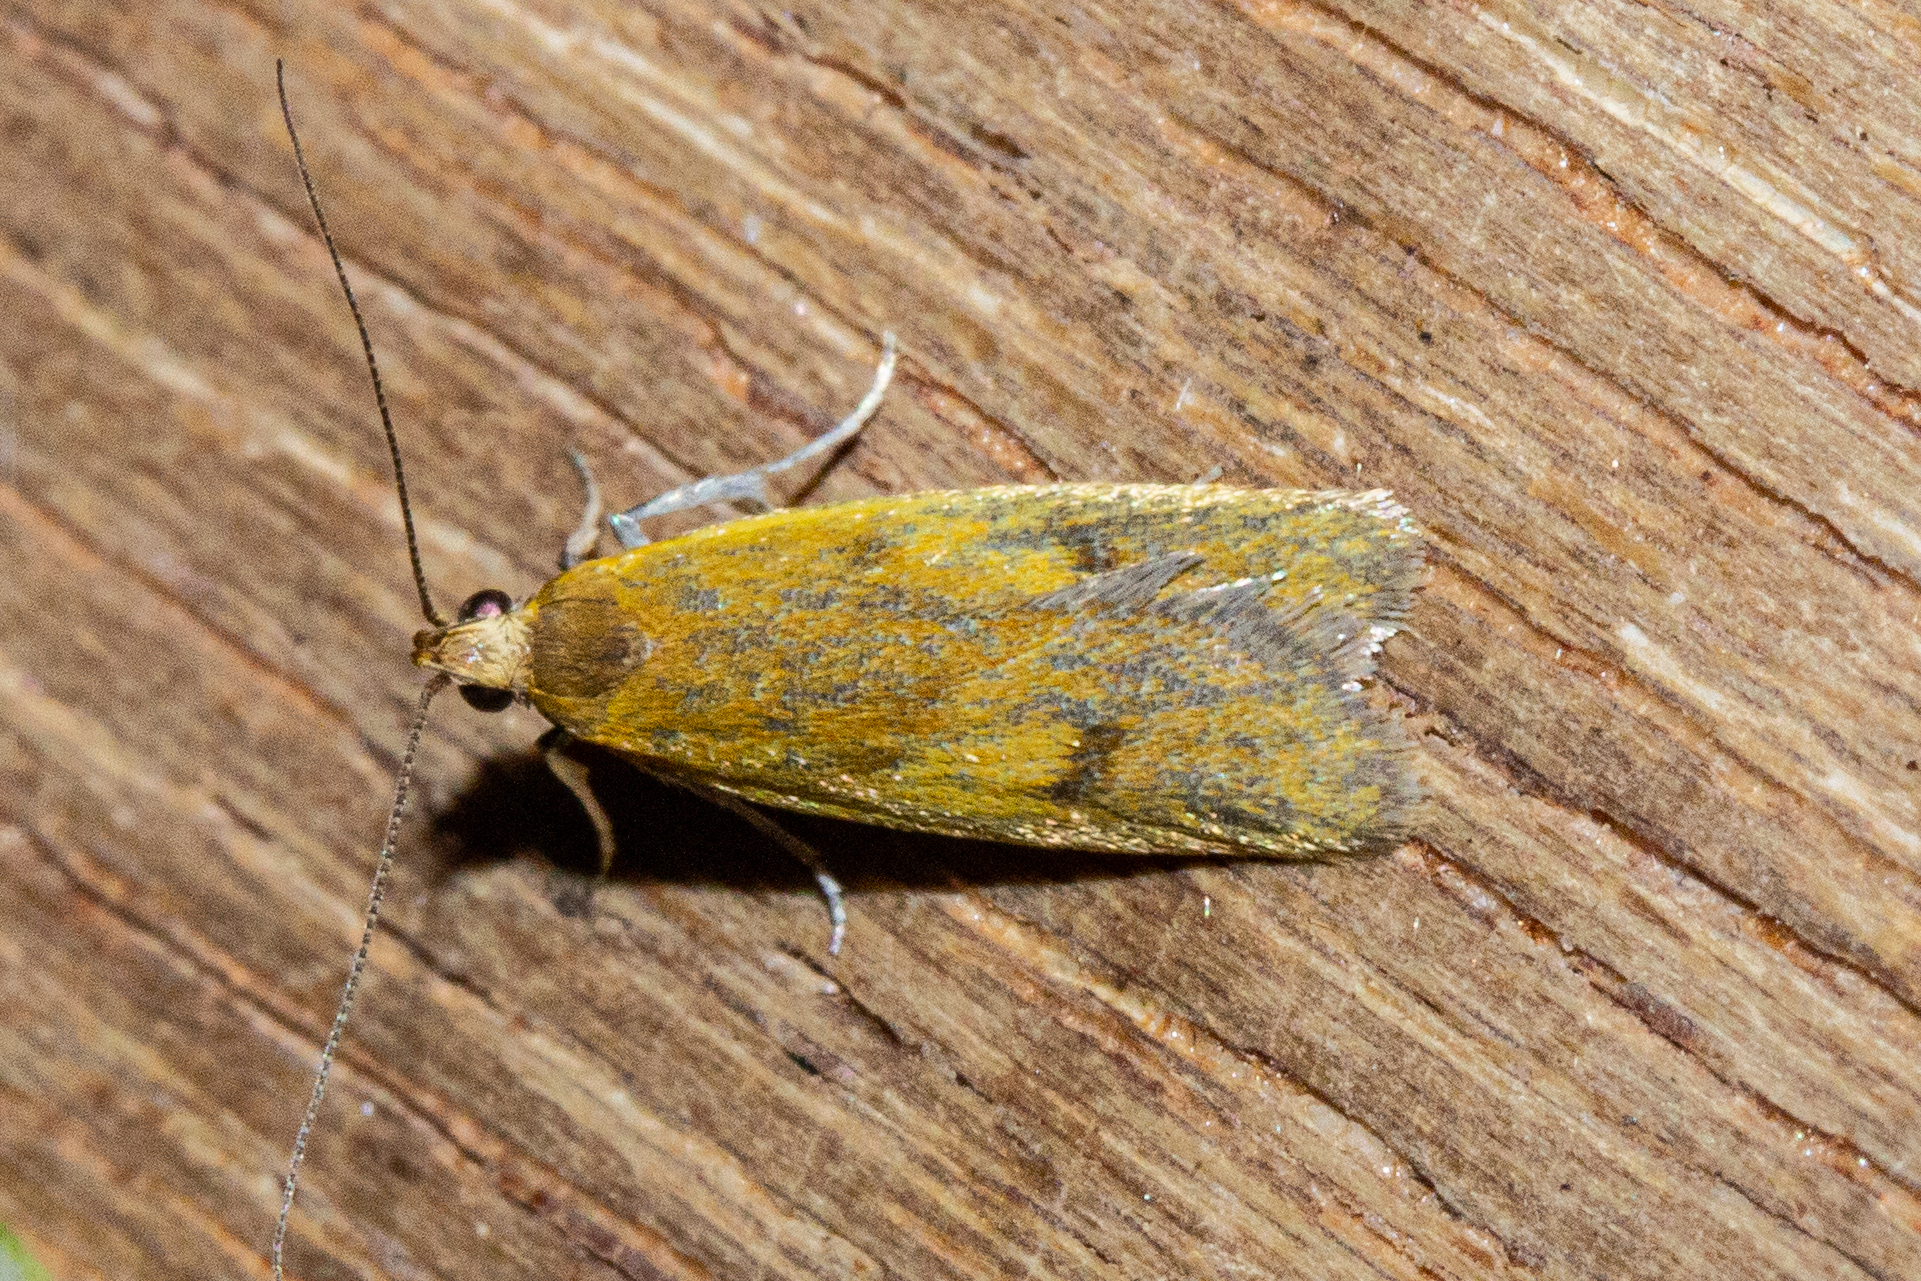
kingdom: Animalia
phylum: Arthropoda
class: Insecta
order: Lepidoptera
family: Oecophoridae
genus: Gymnobathra
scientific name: Gymnobathra parca
